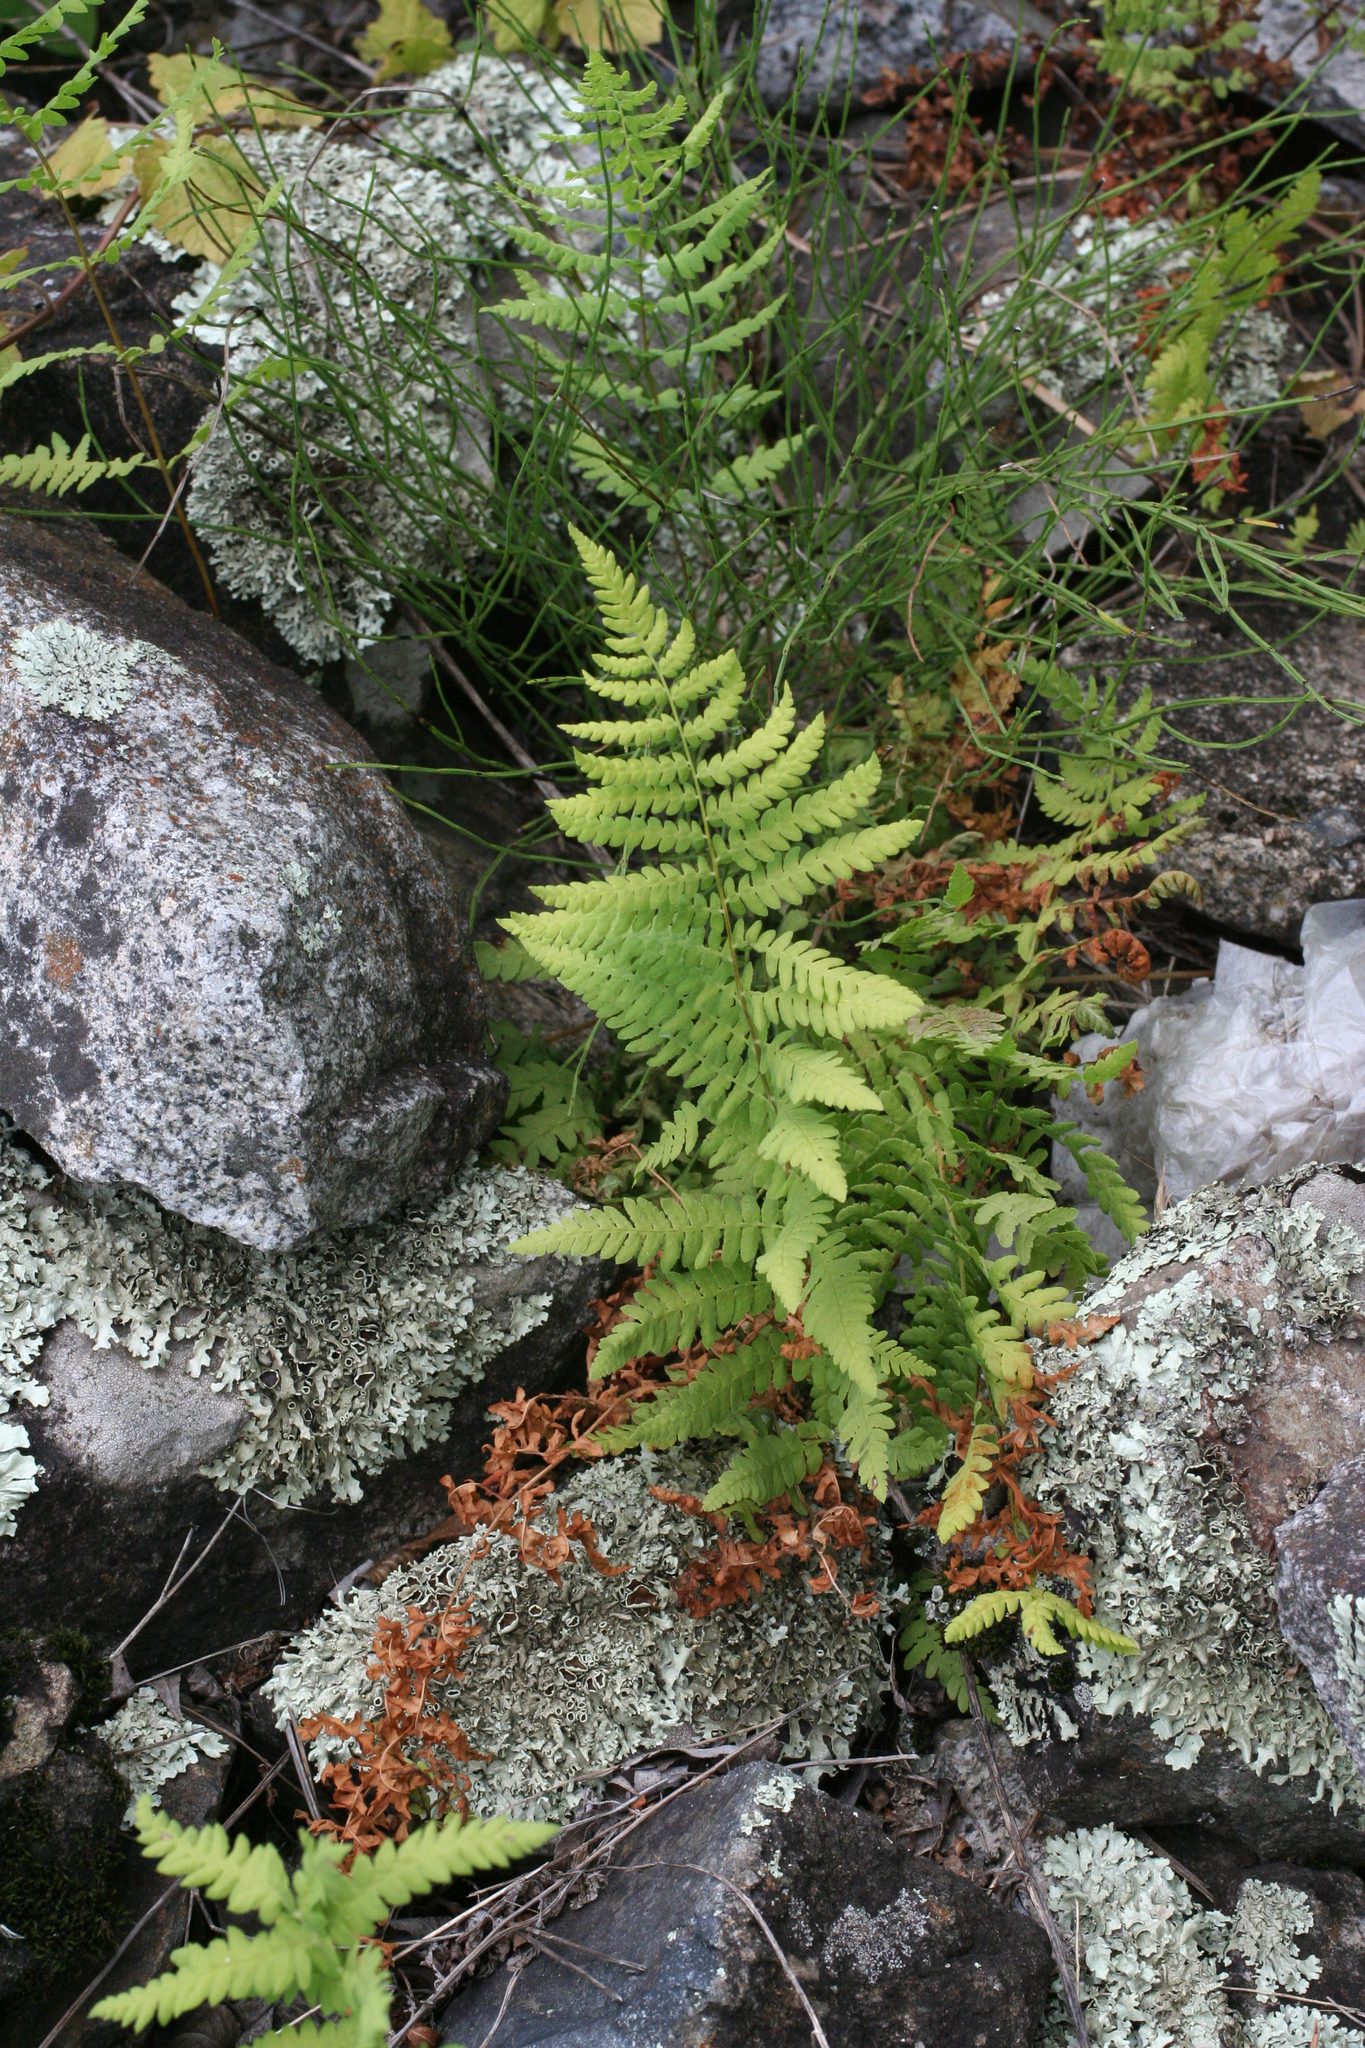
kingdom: Plantae
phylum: Tracheophyta
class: Polypodiopsida
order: Polypodiales
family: Thelypteridaceae
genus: Thelypteris
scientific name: Thelypteris palustris
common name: Marsh fern
